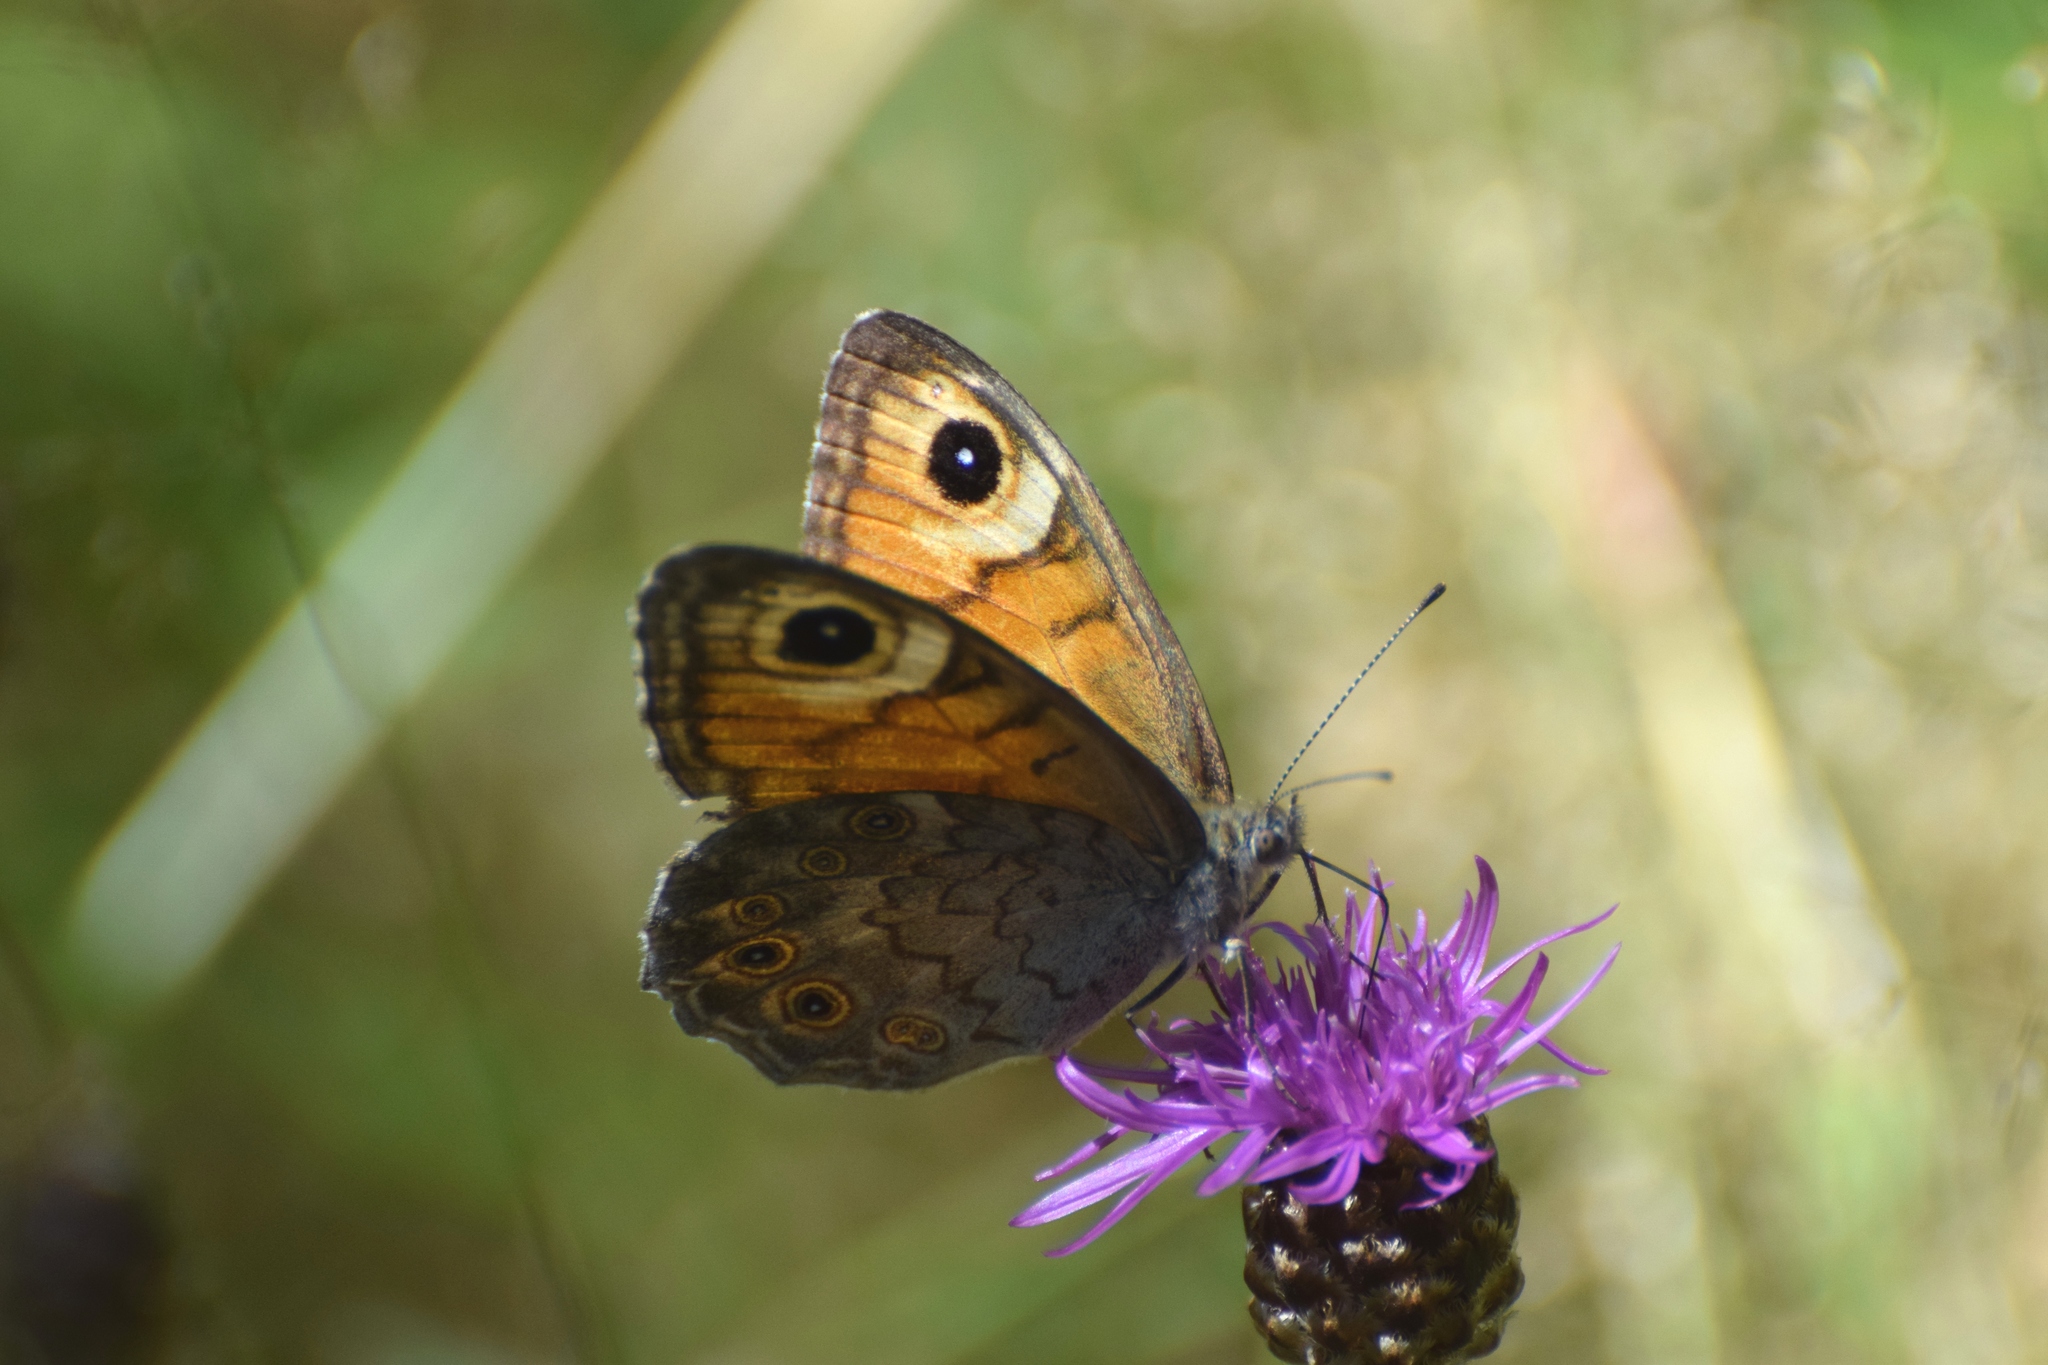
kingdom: Animalia
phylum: Arthropoda
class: Insecta
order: Lepidoptera
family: Nymphalidae
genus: Pararge
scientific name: Pararge Lasiommata maera
